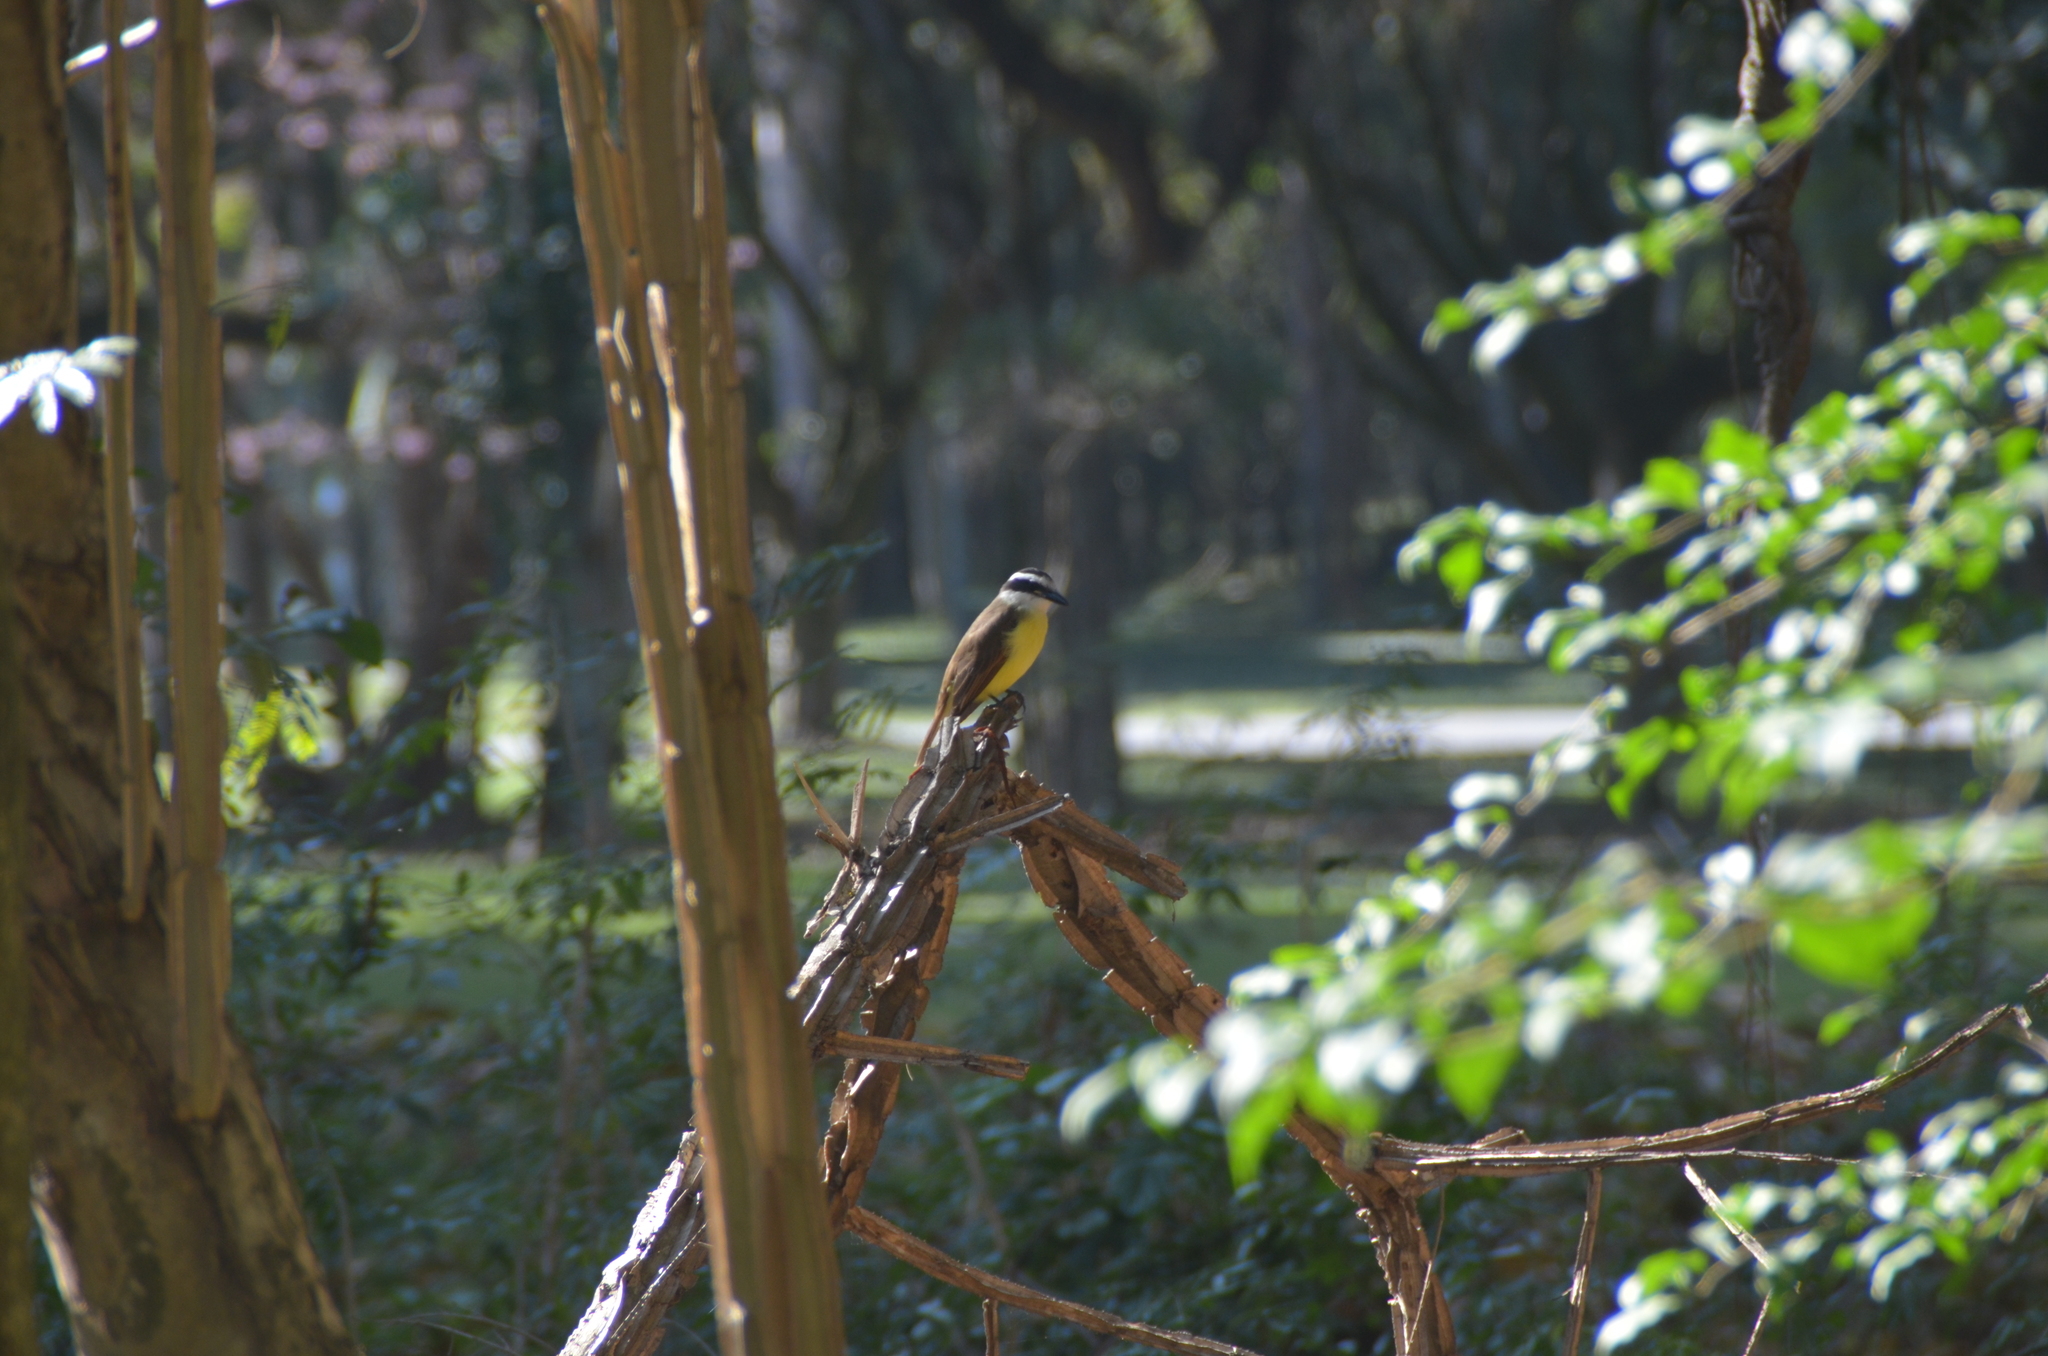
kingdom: Animalia
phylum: Chordata
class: Aves
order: Passeriformes
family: Tyrannidae
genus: Pitangus
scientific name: Pitangus sulphuratus
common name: Great kiskadee
